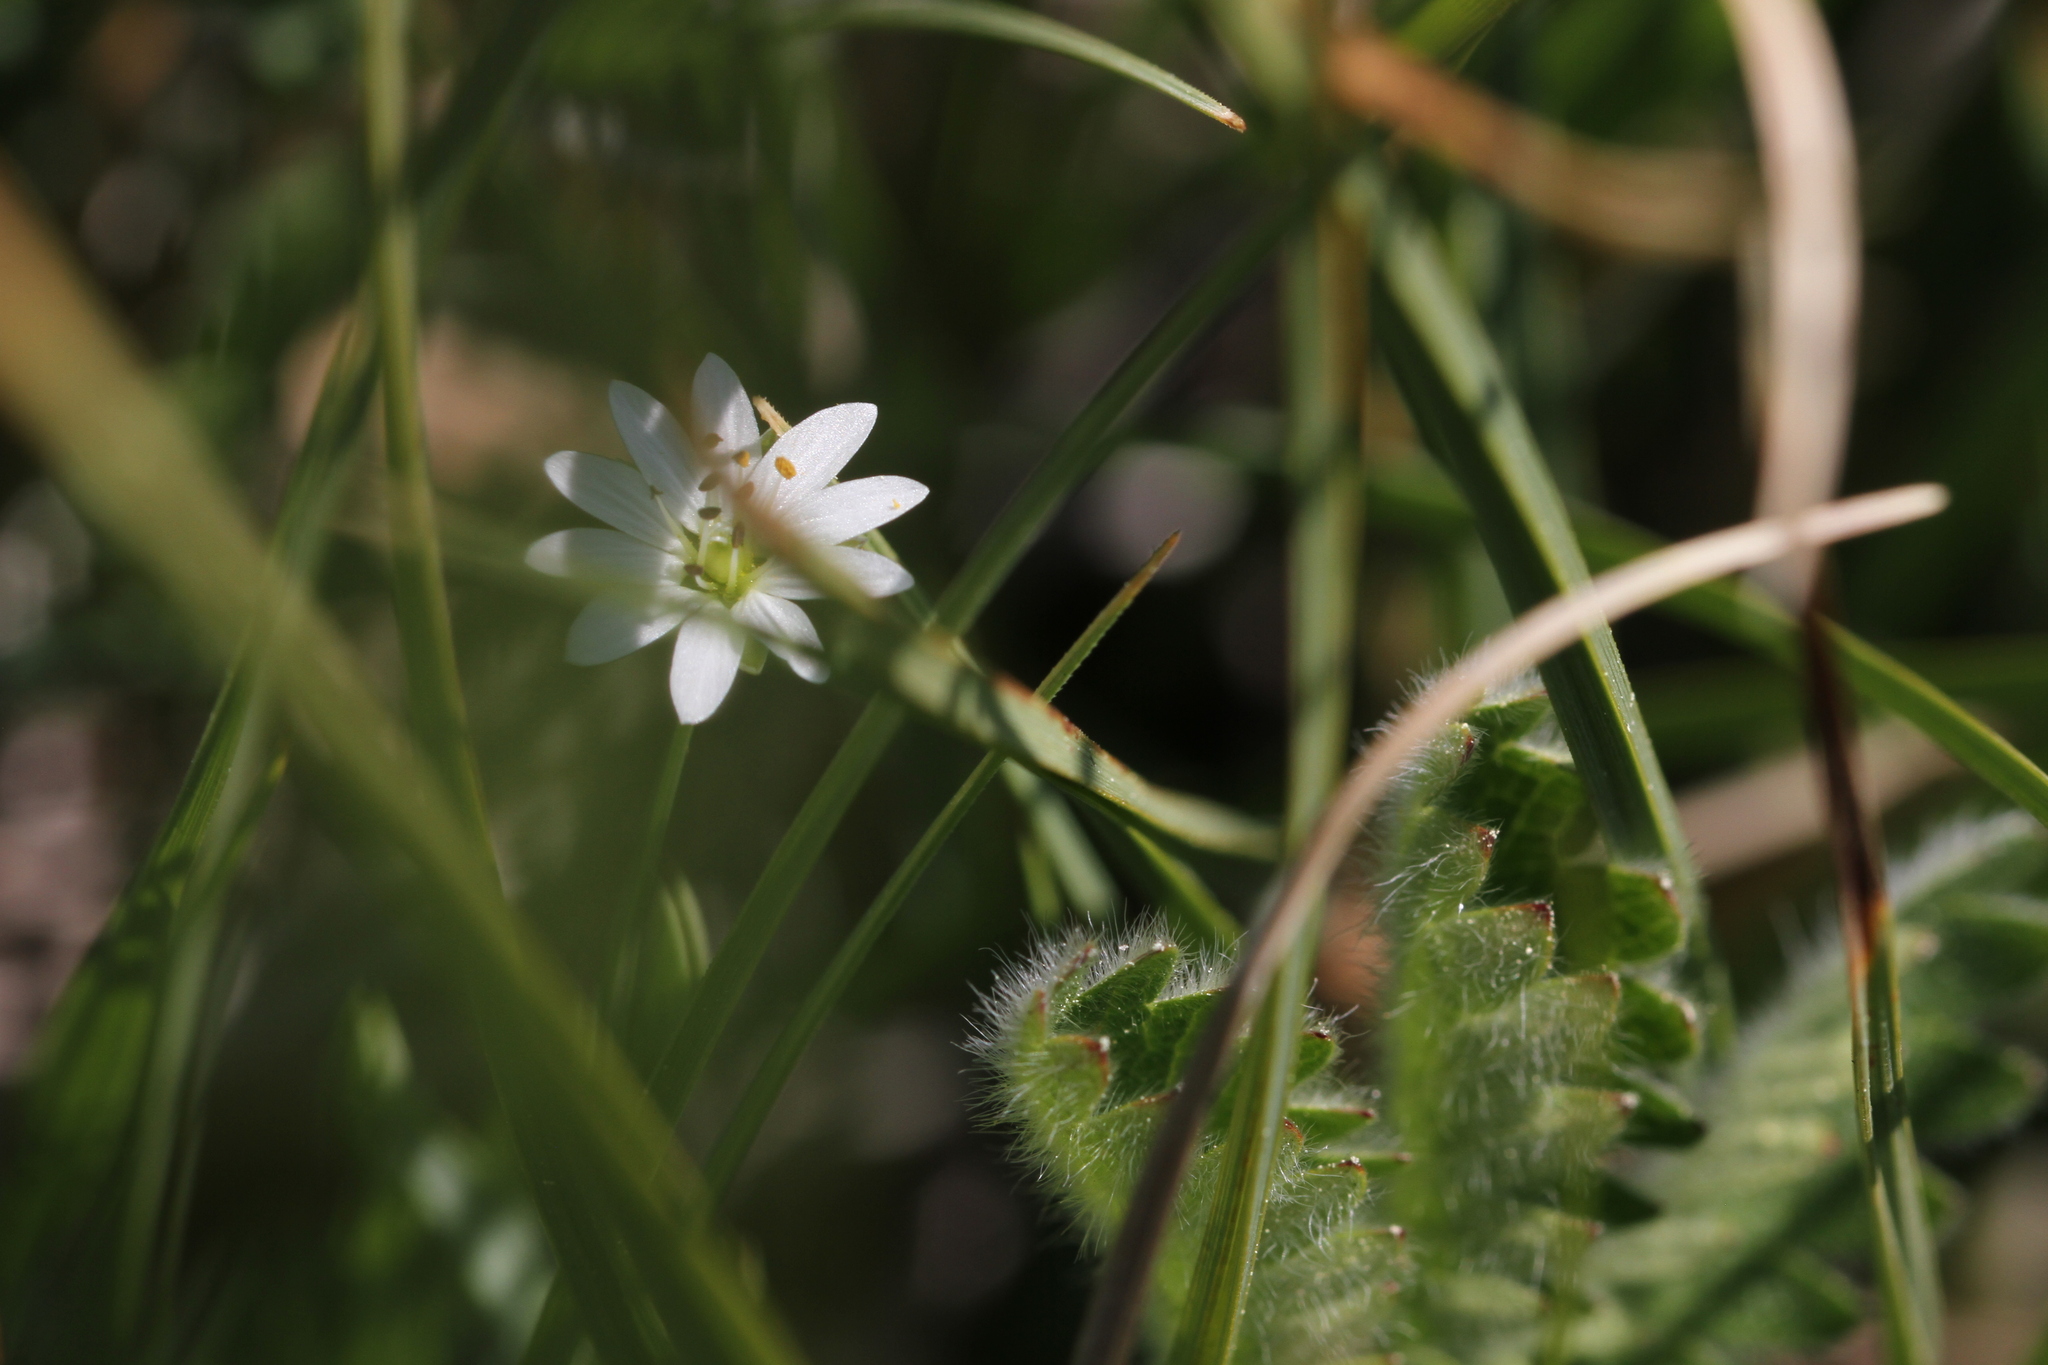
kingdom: Plantae
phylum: Tracheophyta
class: Magnoliopsida
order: Caryophyllales
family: Caryophyllaceae
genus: Stellaria
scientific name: Stellaria longipes
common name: Goldie's starwort
